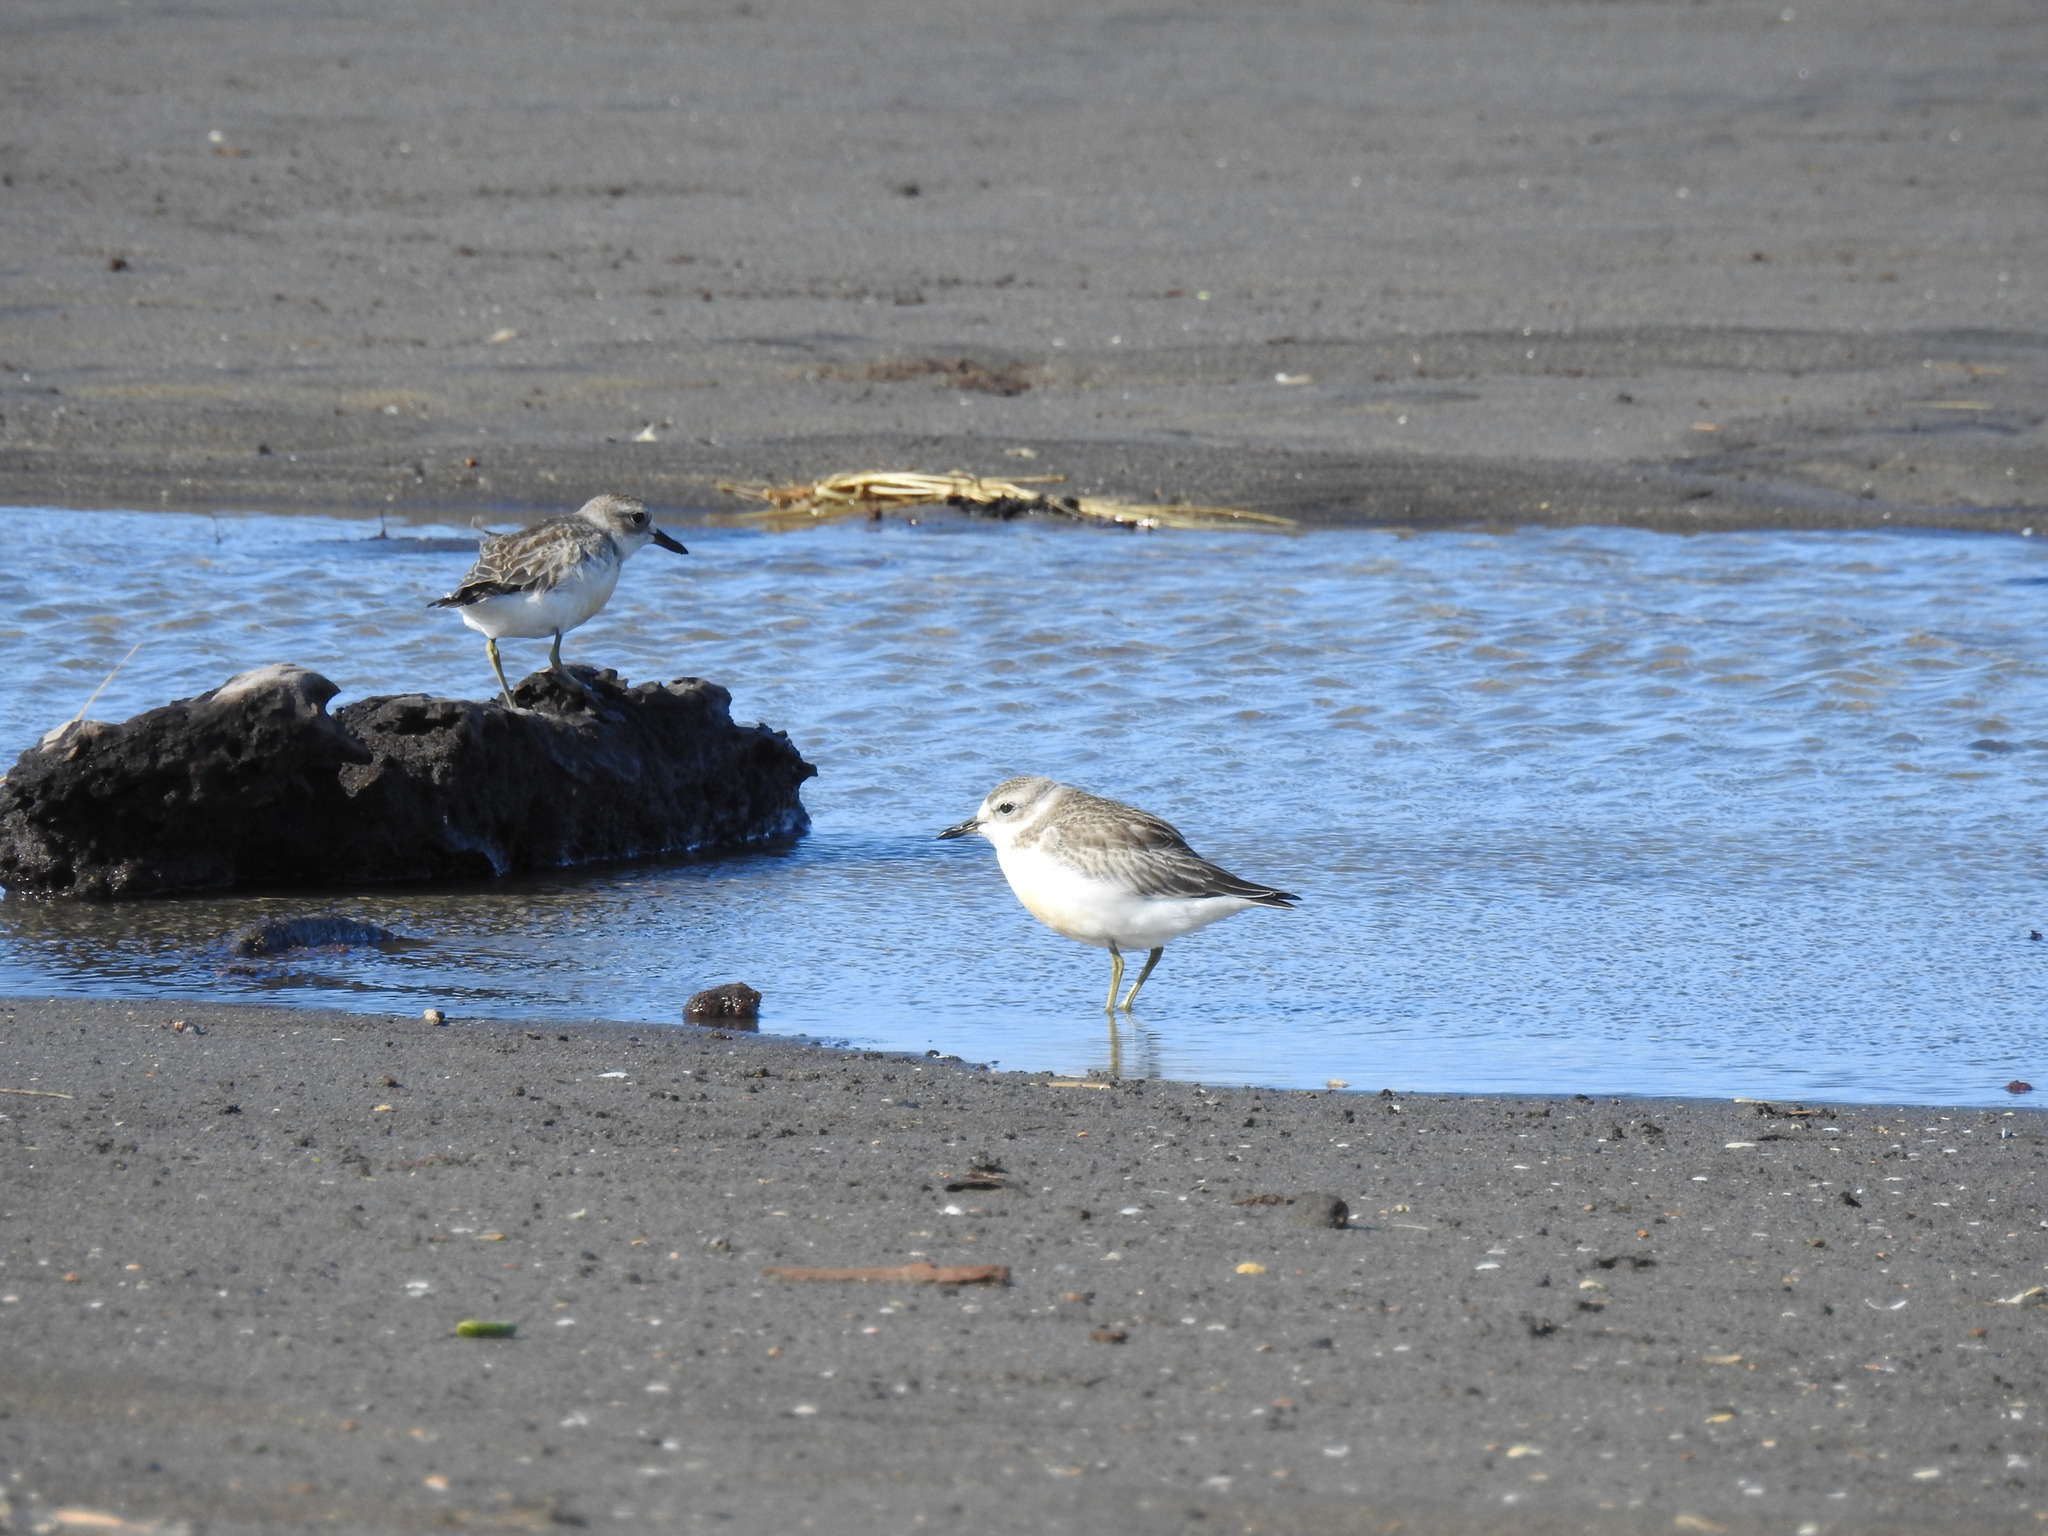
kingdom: Animalia
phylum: Chordata
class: Aves
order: Charadriiformes
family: Charadriidae
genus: Anarhynchus
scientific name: Anarhynchus
